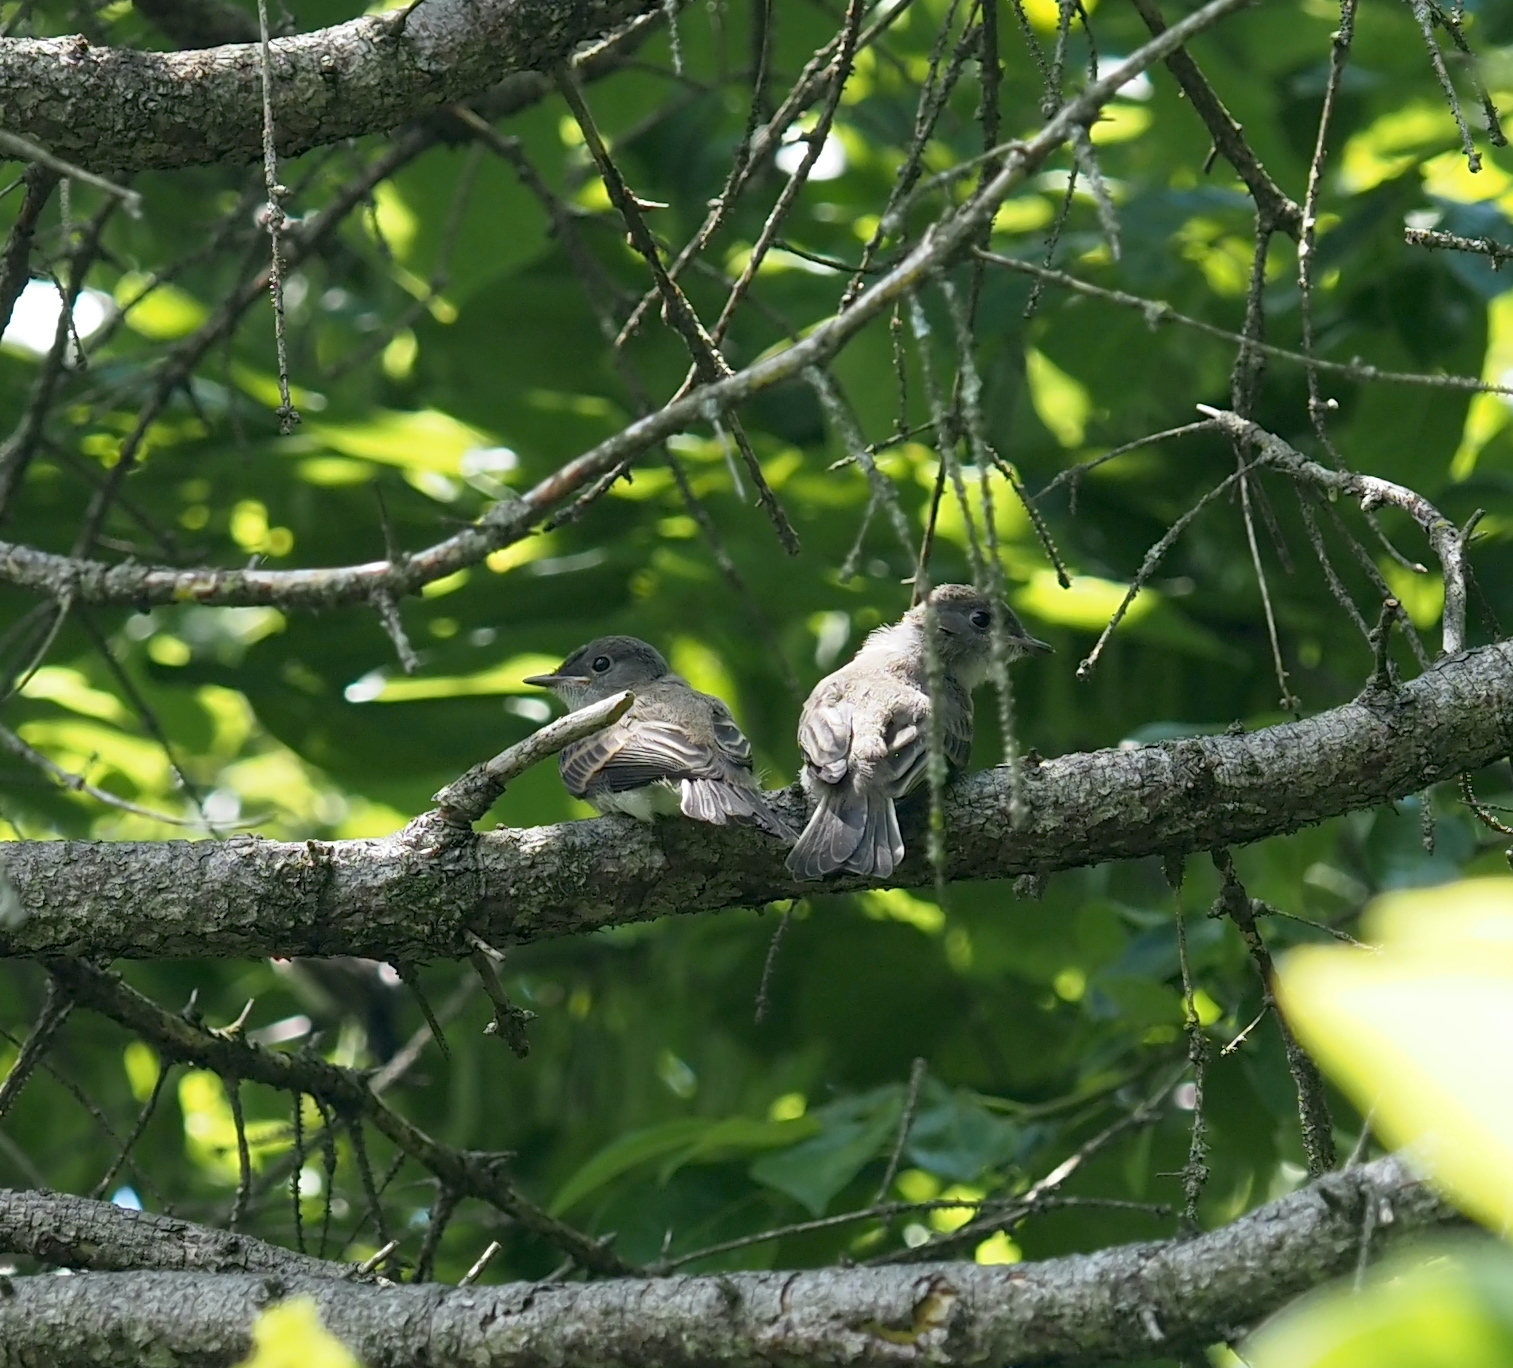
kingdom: Animalia
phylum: Chordata
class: Aves
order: Passeriformes
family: Tyrannidae
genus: Sayornis
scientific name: Sayornis phoebe
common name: Eastern phoebe
